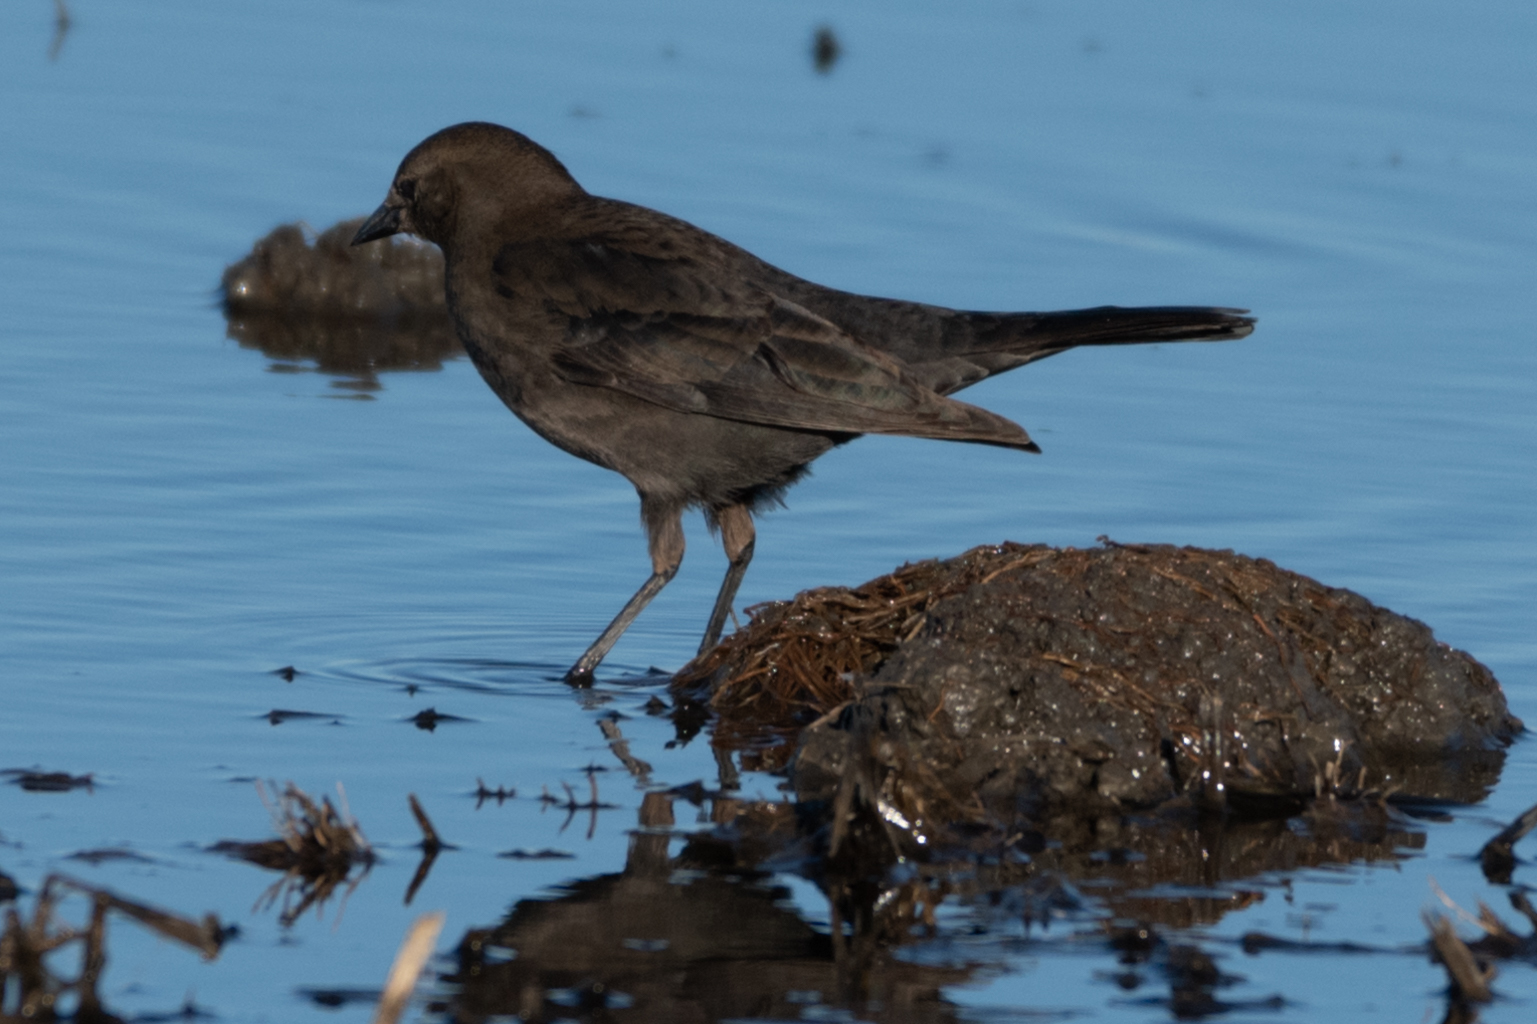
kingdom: Animalia
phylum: Chordata
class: Aves
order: Passeriformes
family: Icteridae
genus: Euphagus
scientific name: Euphagus cyanocephalus
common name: Brewer's blackbird
